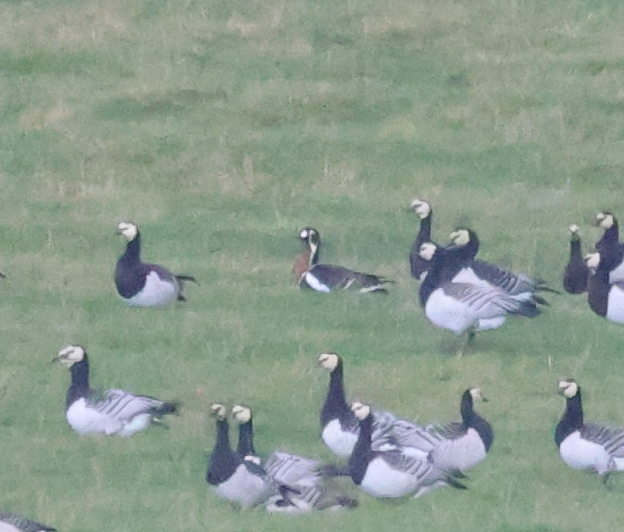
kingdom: Animalia
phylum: Chordata
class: Aves
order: Anseriformes
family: Anatidae
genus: Branta
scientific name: Branta ruficollis
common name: Red-breasted goose
